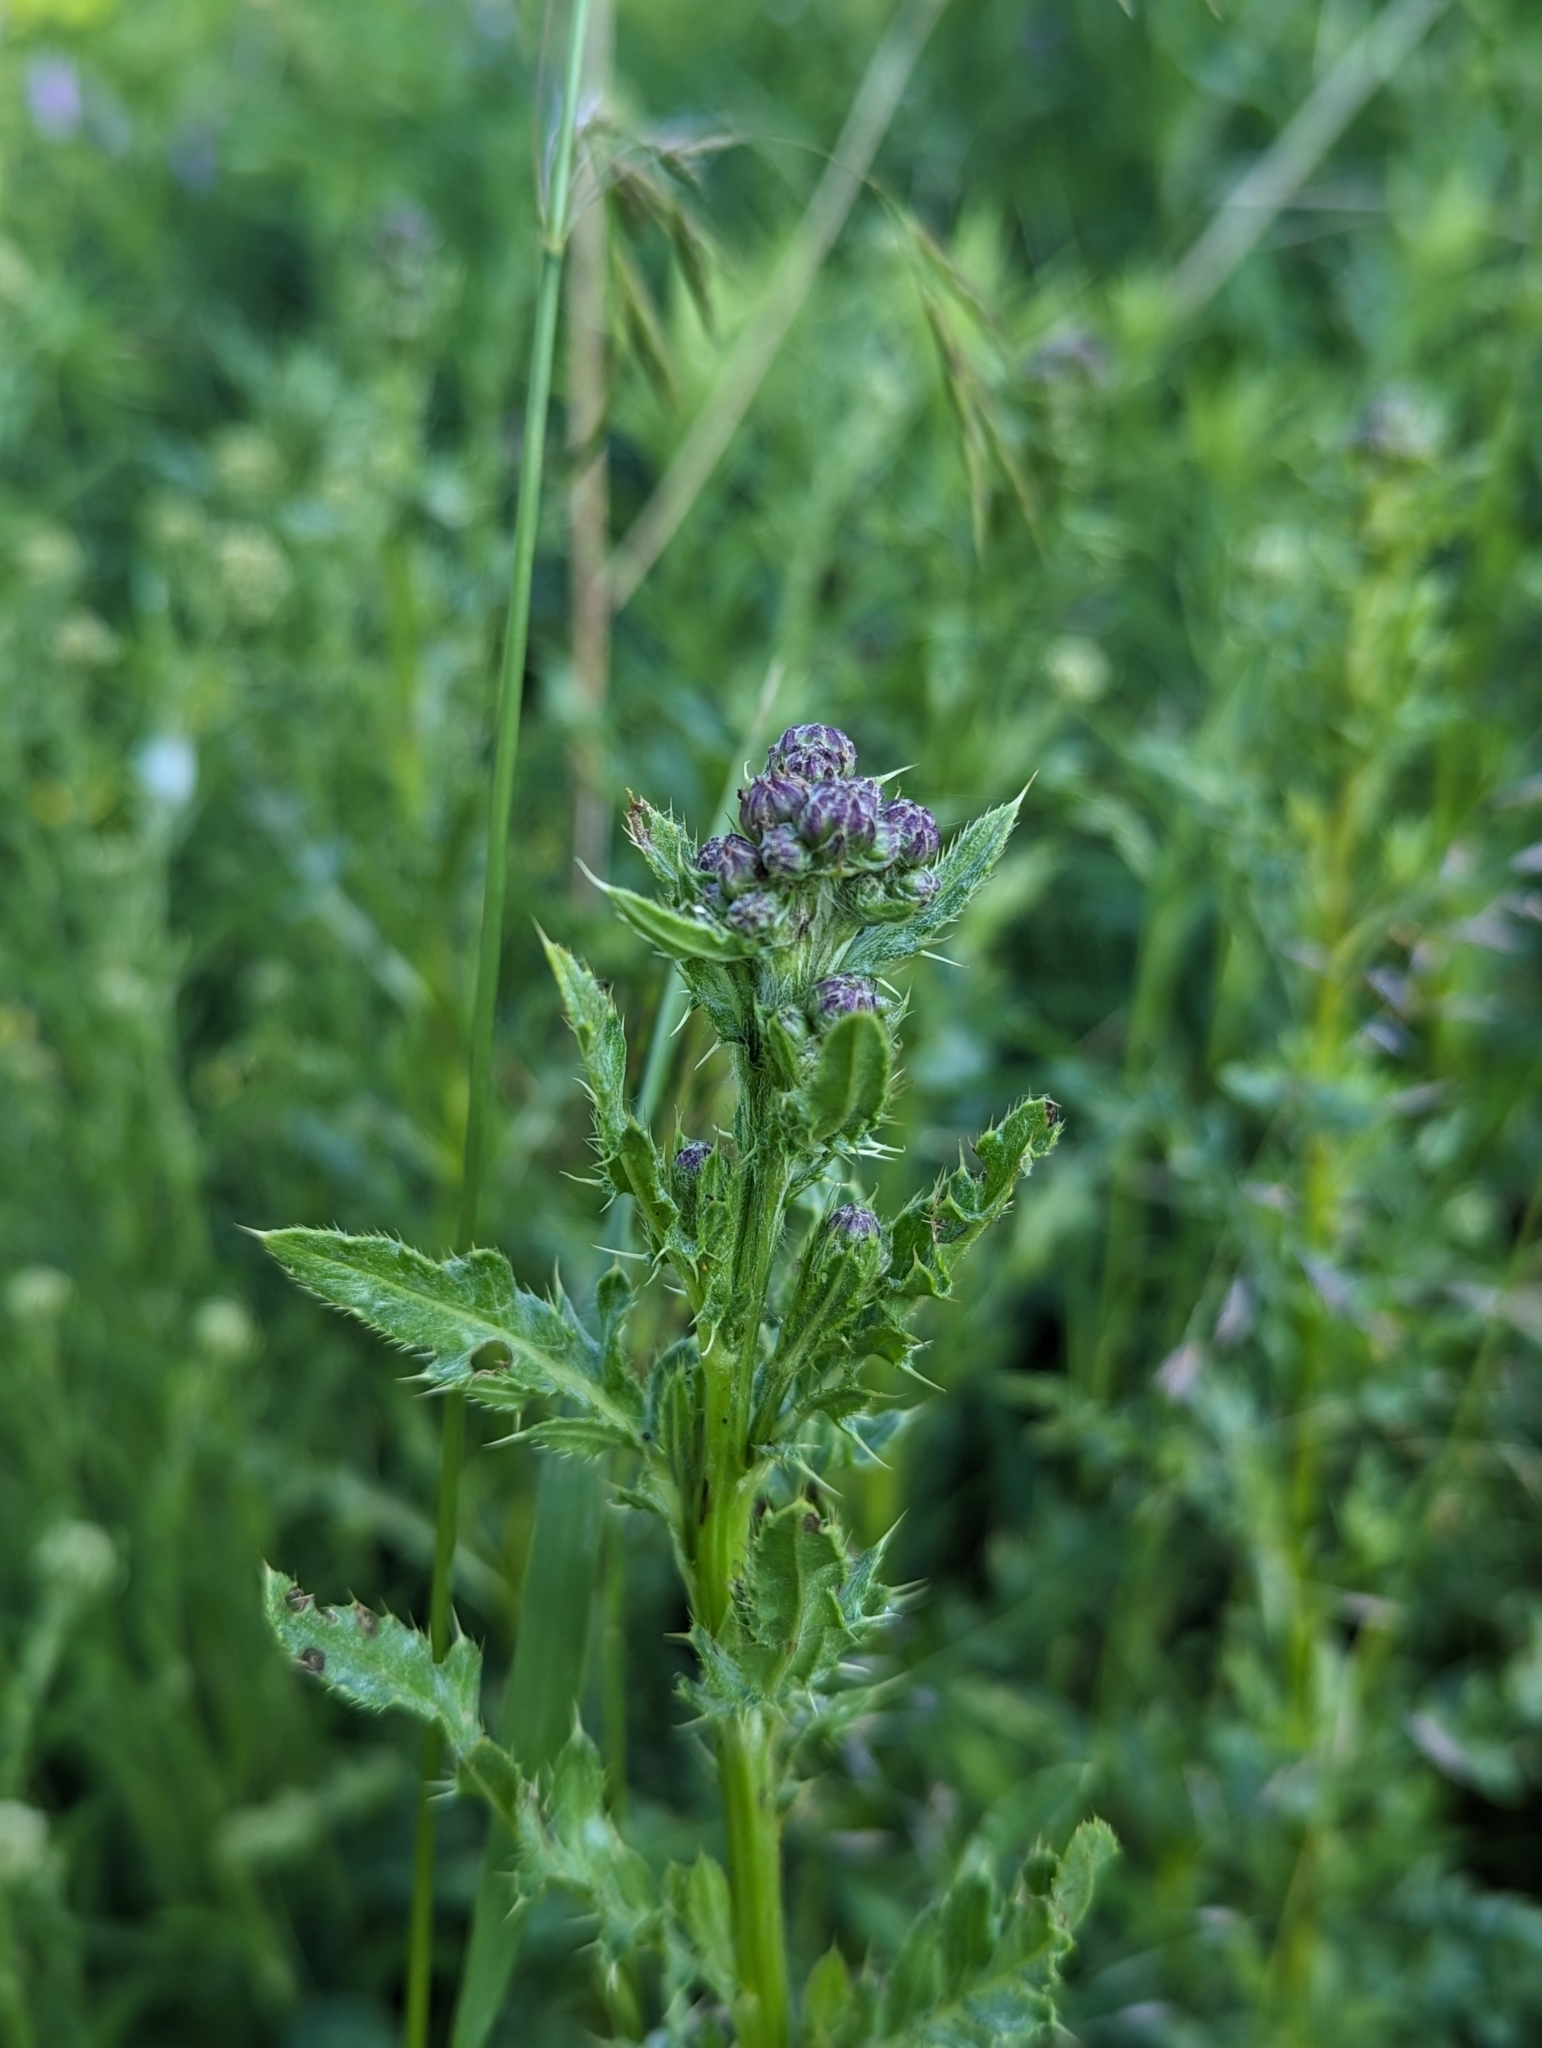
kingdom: Plantae
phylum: Tracheophyta
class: Magnoliopsida
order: Asterales
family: Asteraceae
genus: Cirsium
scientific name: Cirsium arvense
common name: Creeping thistle
